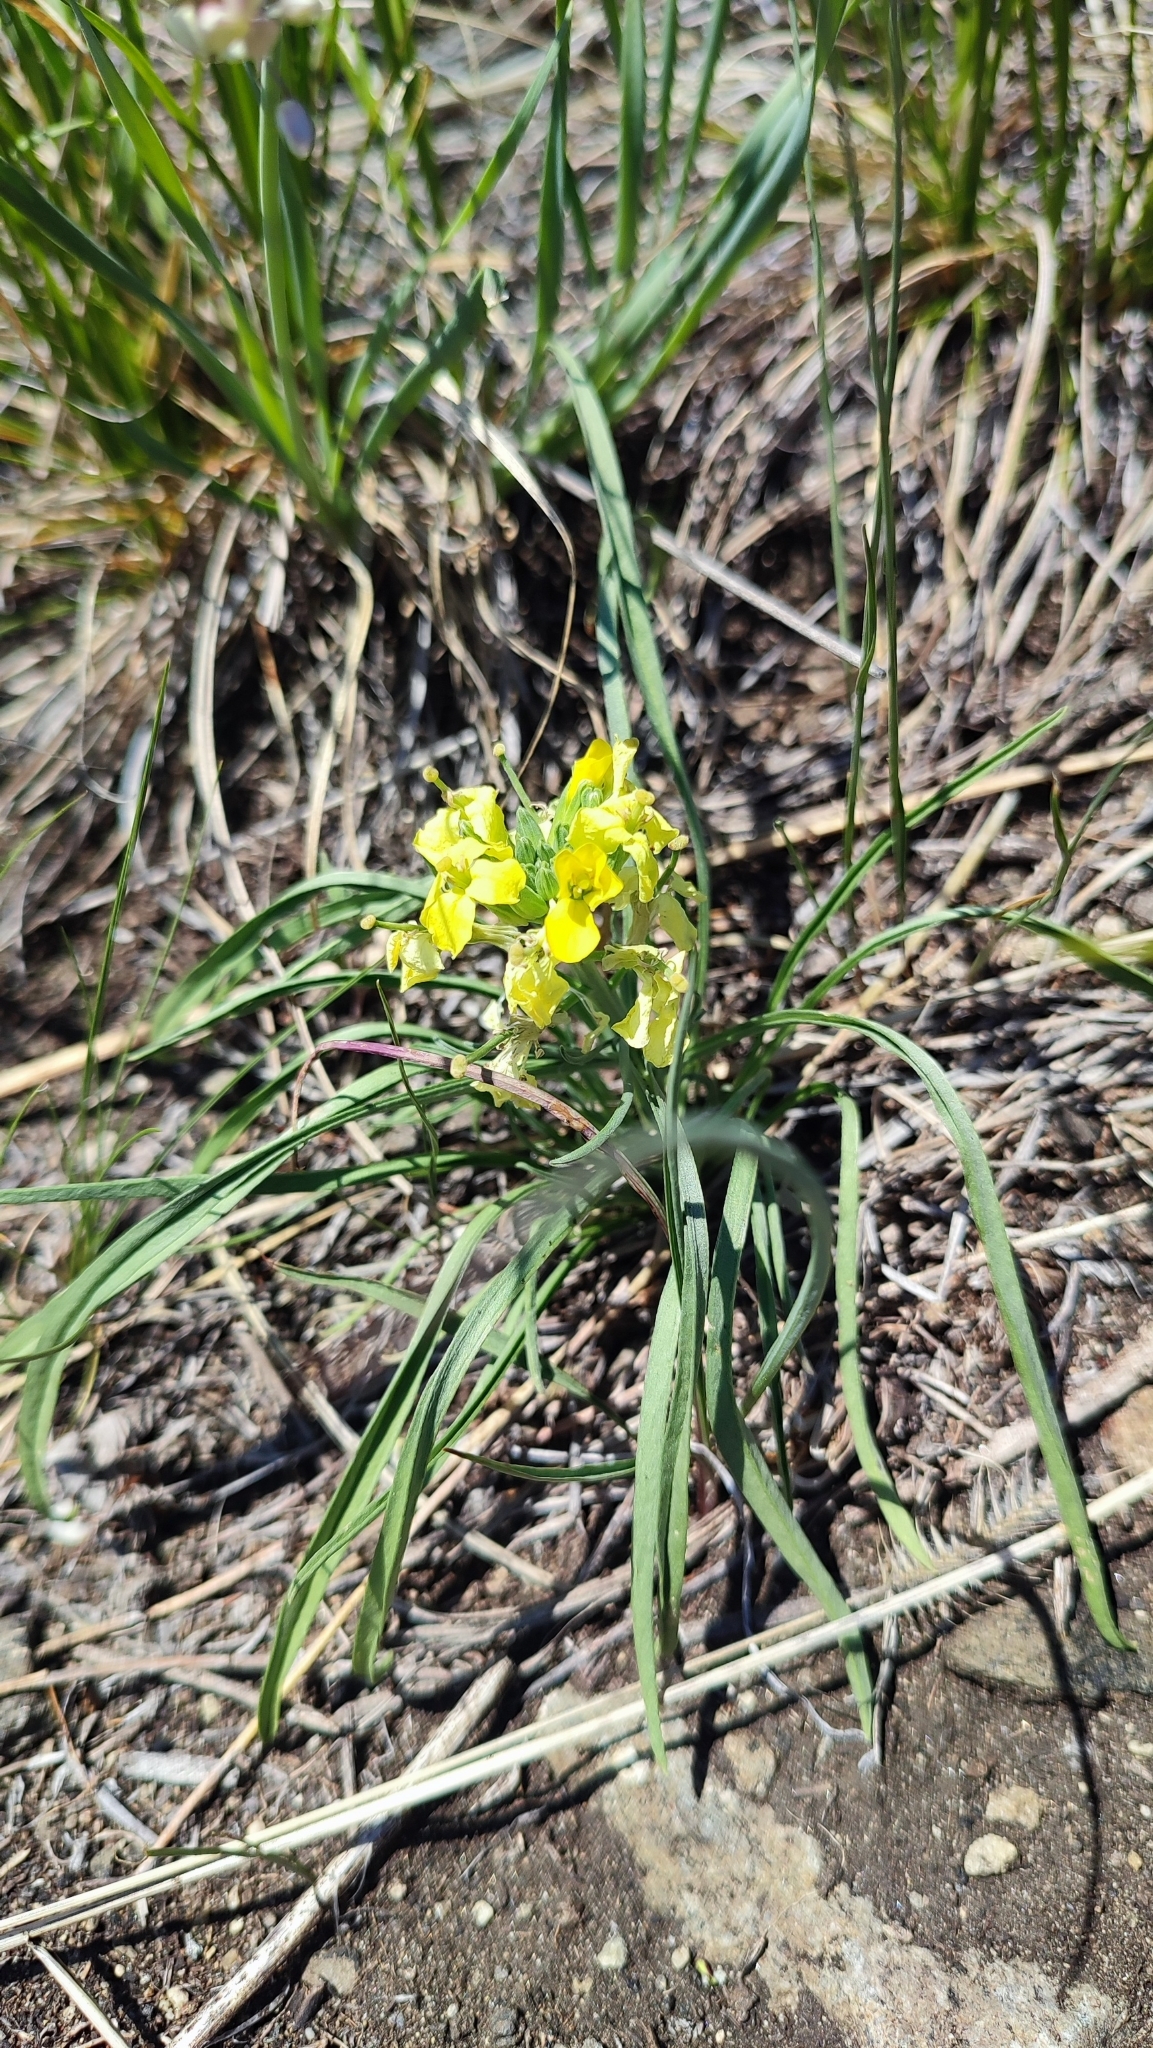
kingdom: Plantae
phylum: Tracheophyta
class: Magnoliopsida
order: Brassicales
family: Brassicaceae
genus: Erysimum
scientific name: Erysimum flavum
